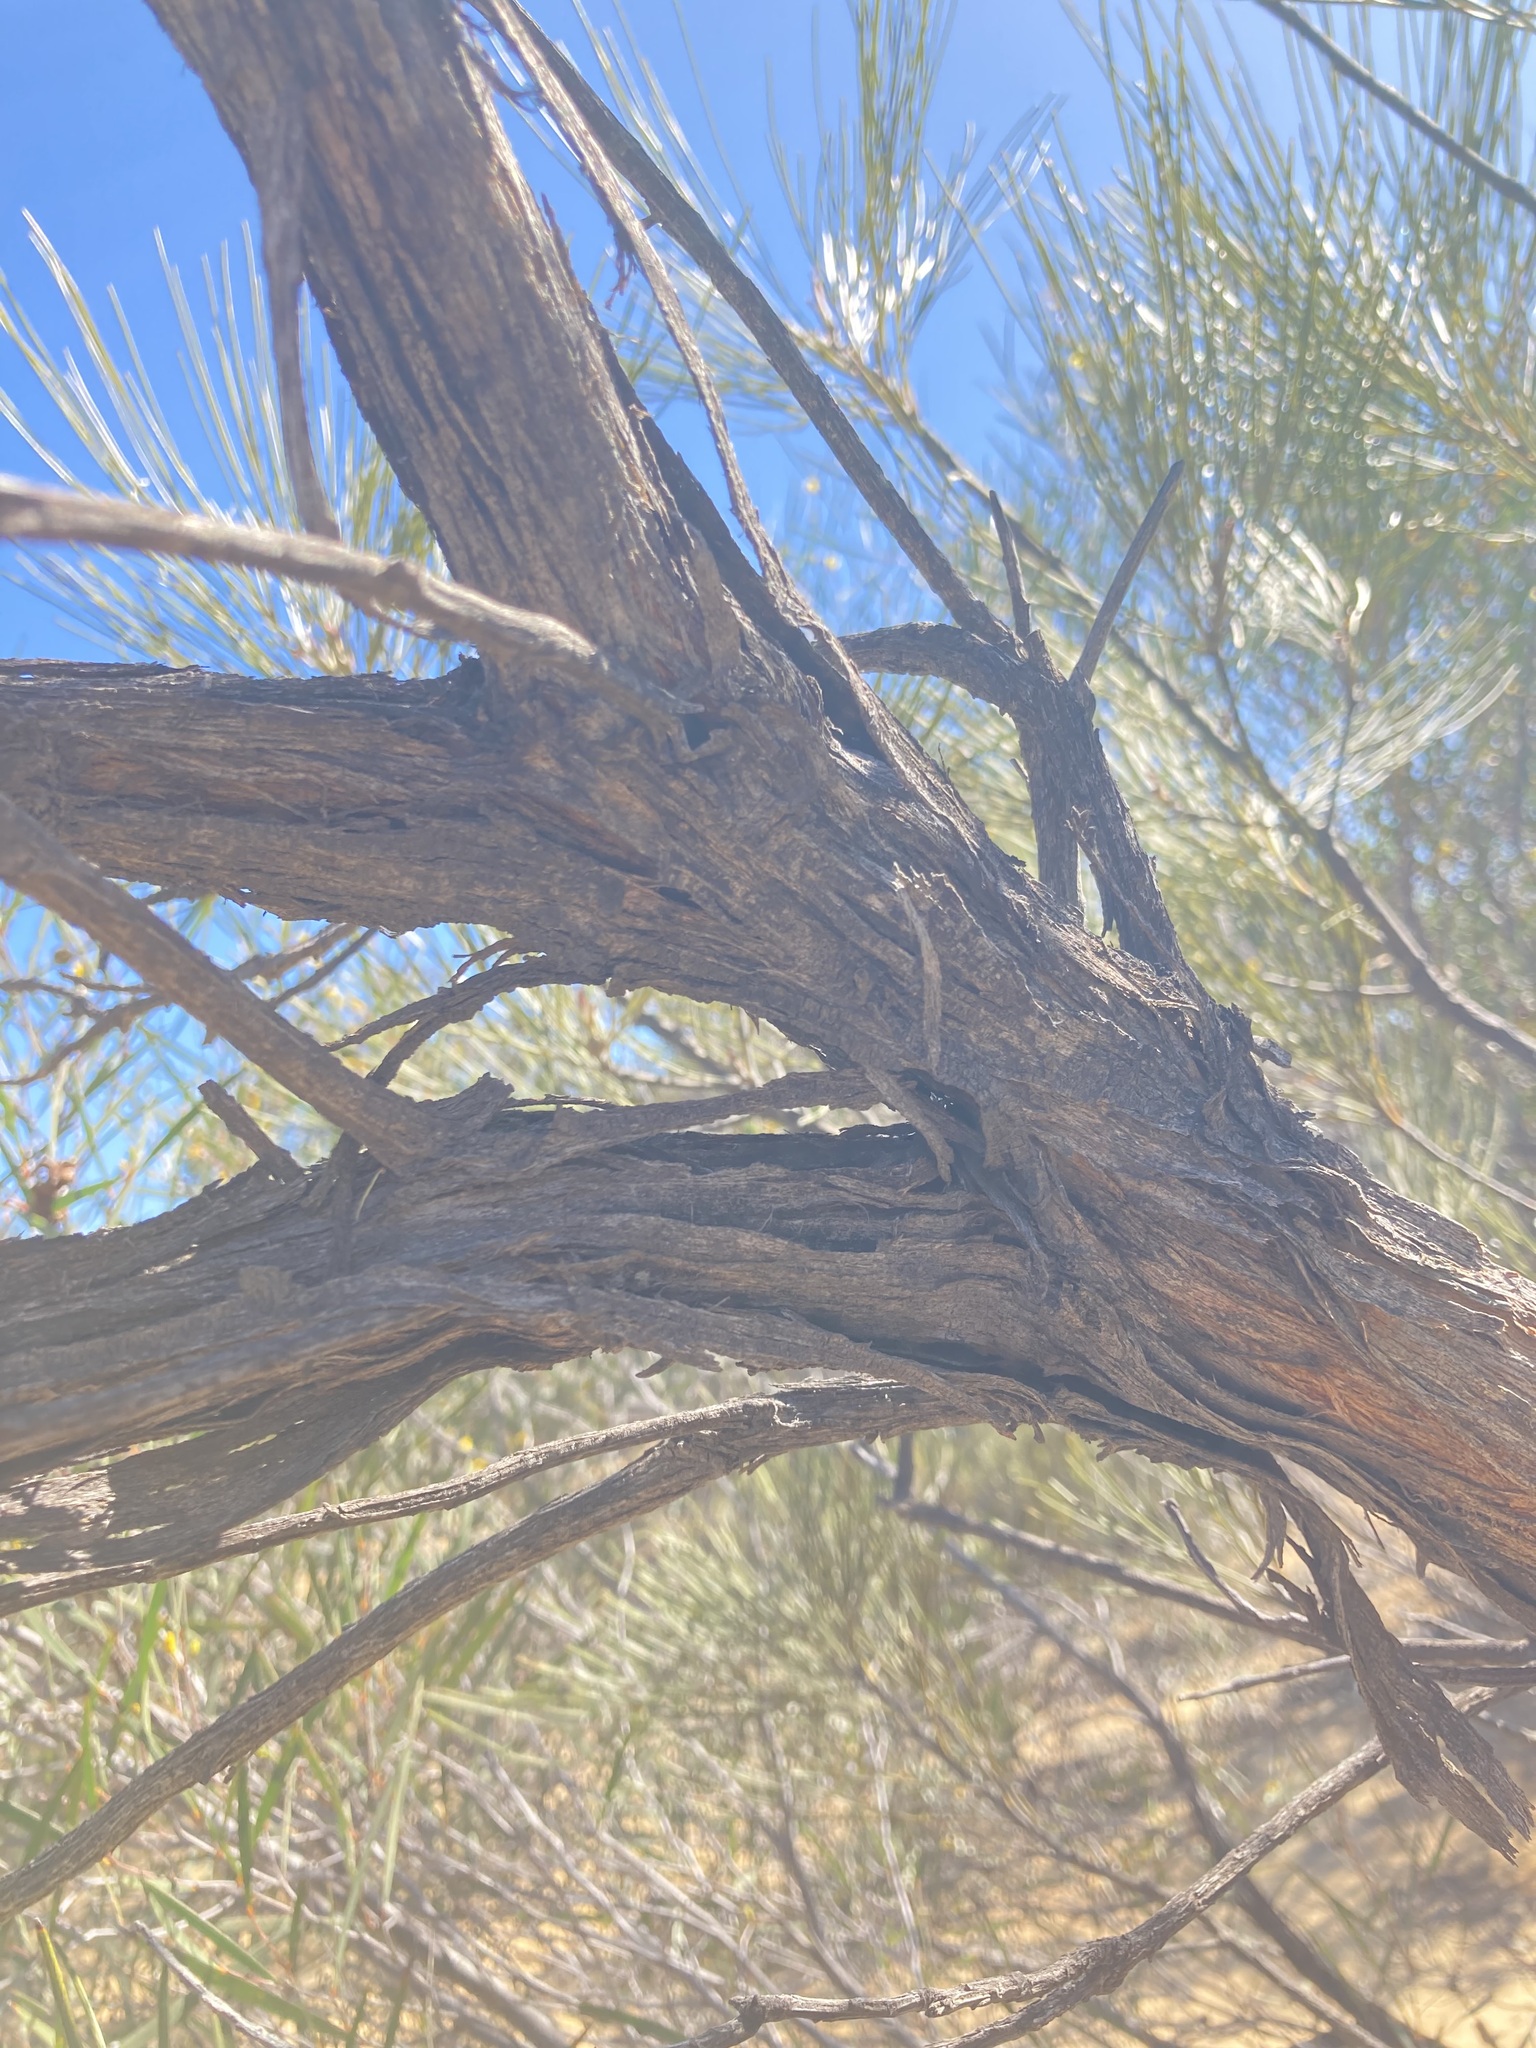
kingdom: Plantae
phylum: Tracheophyta
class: Magnoliopsida
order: Proteales
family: Proteaceae
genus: Grevillea
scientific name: Grevillea excelsior
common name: Orange flame grevillea
